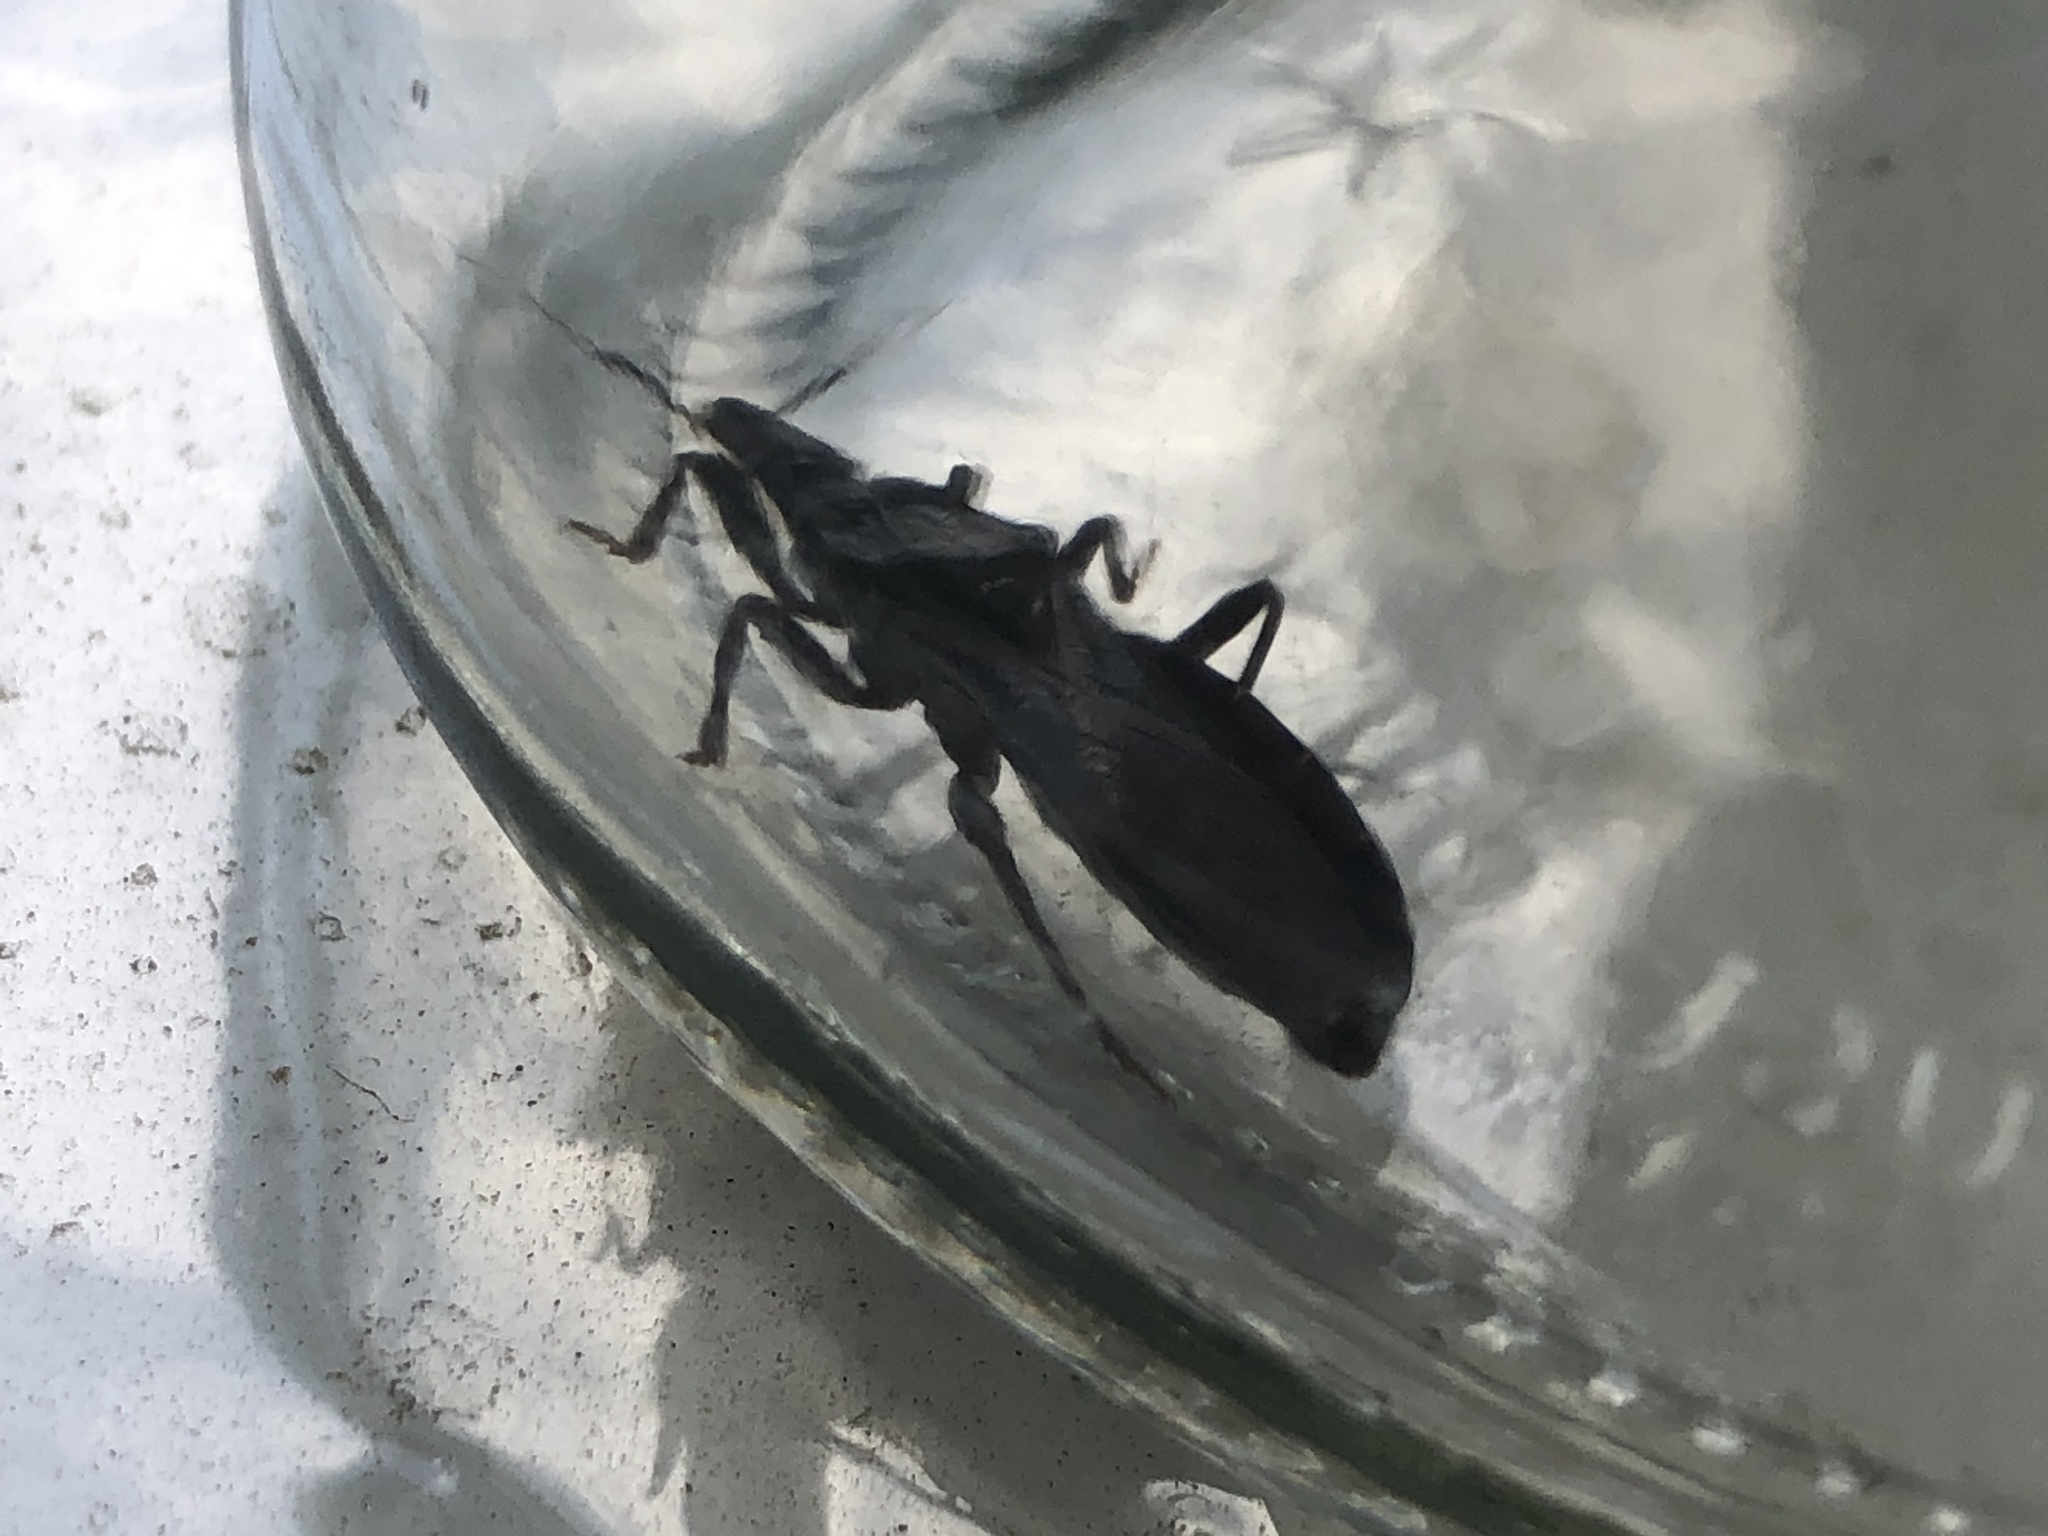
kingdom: Animalia
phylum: Arthropoda
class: Insecta
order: Hemiptera
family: Reduviidae
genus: Triatoma
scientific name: Triatoma protracta
